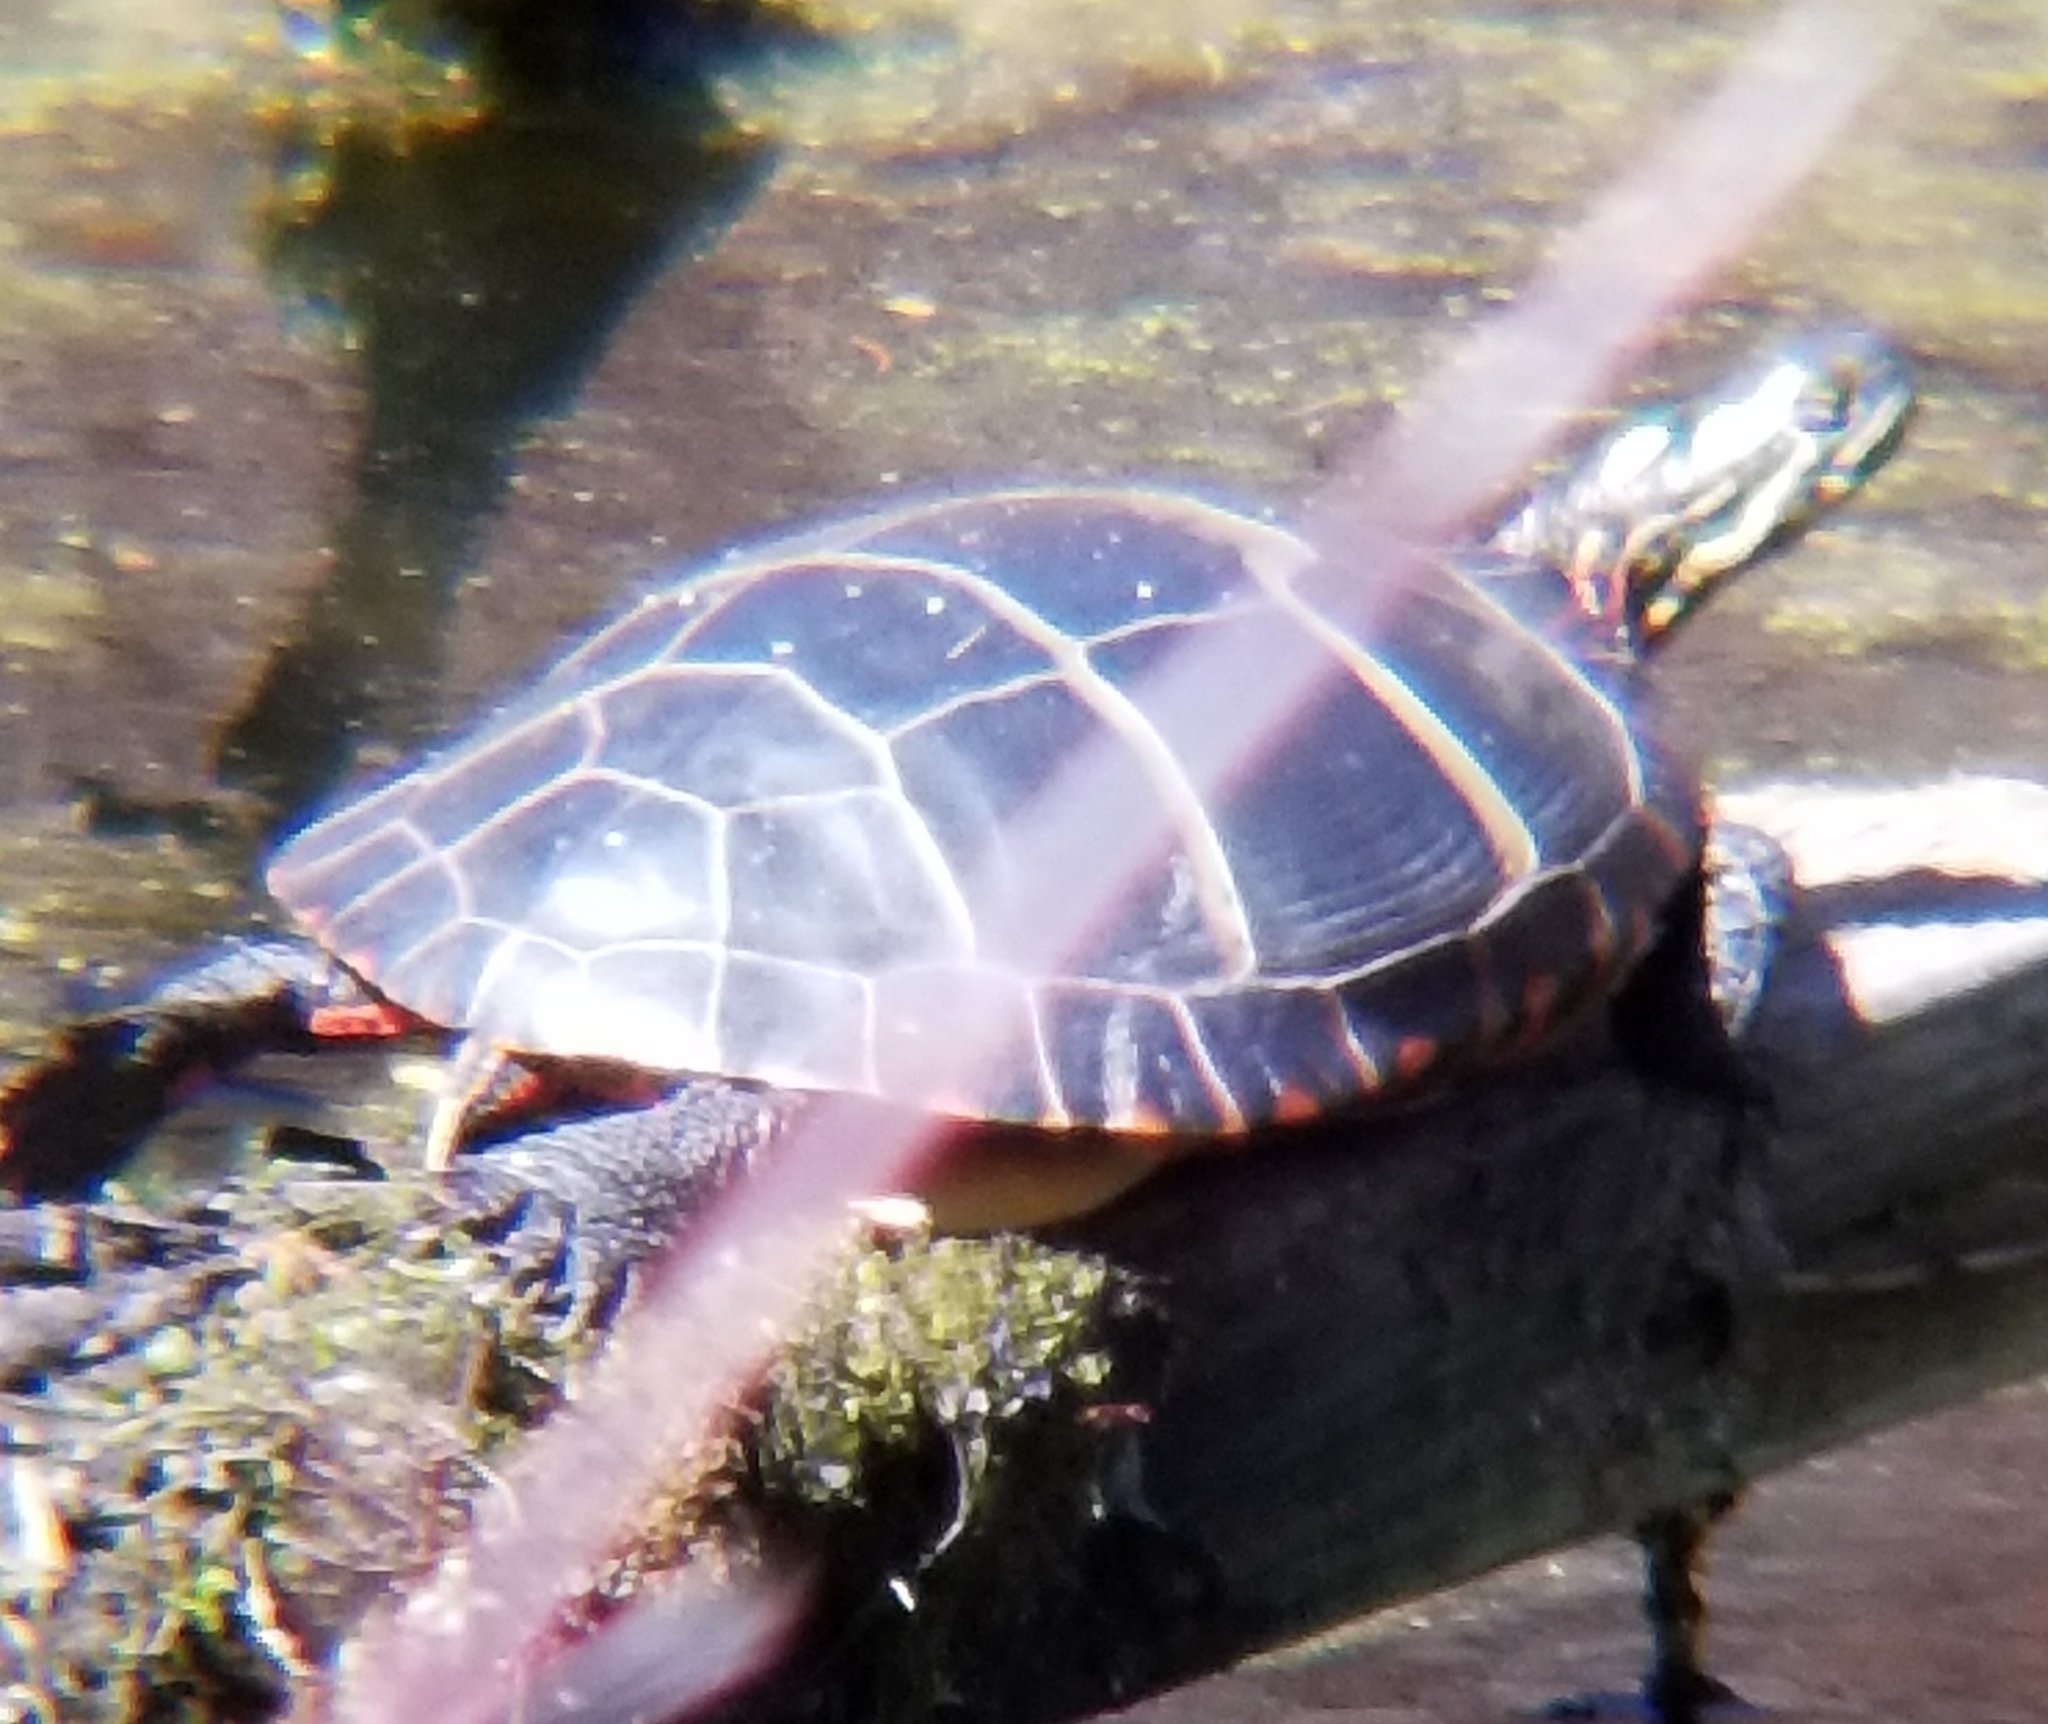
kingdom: Animalia
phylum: Chordata
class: Testudines
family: Emydidae
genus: Chrysemys
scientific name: Chrysemys picta
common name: Painted turtle
